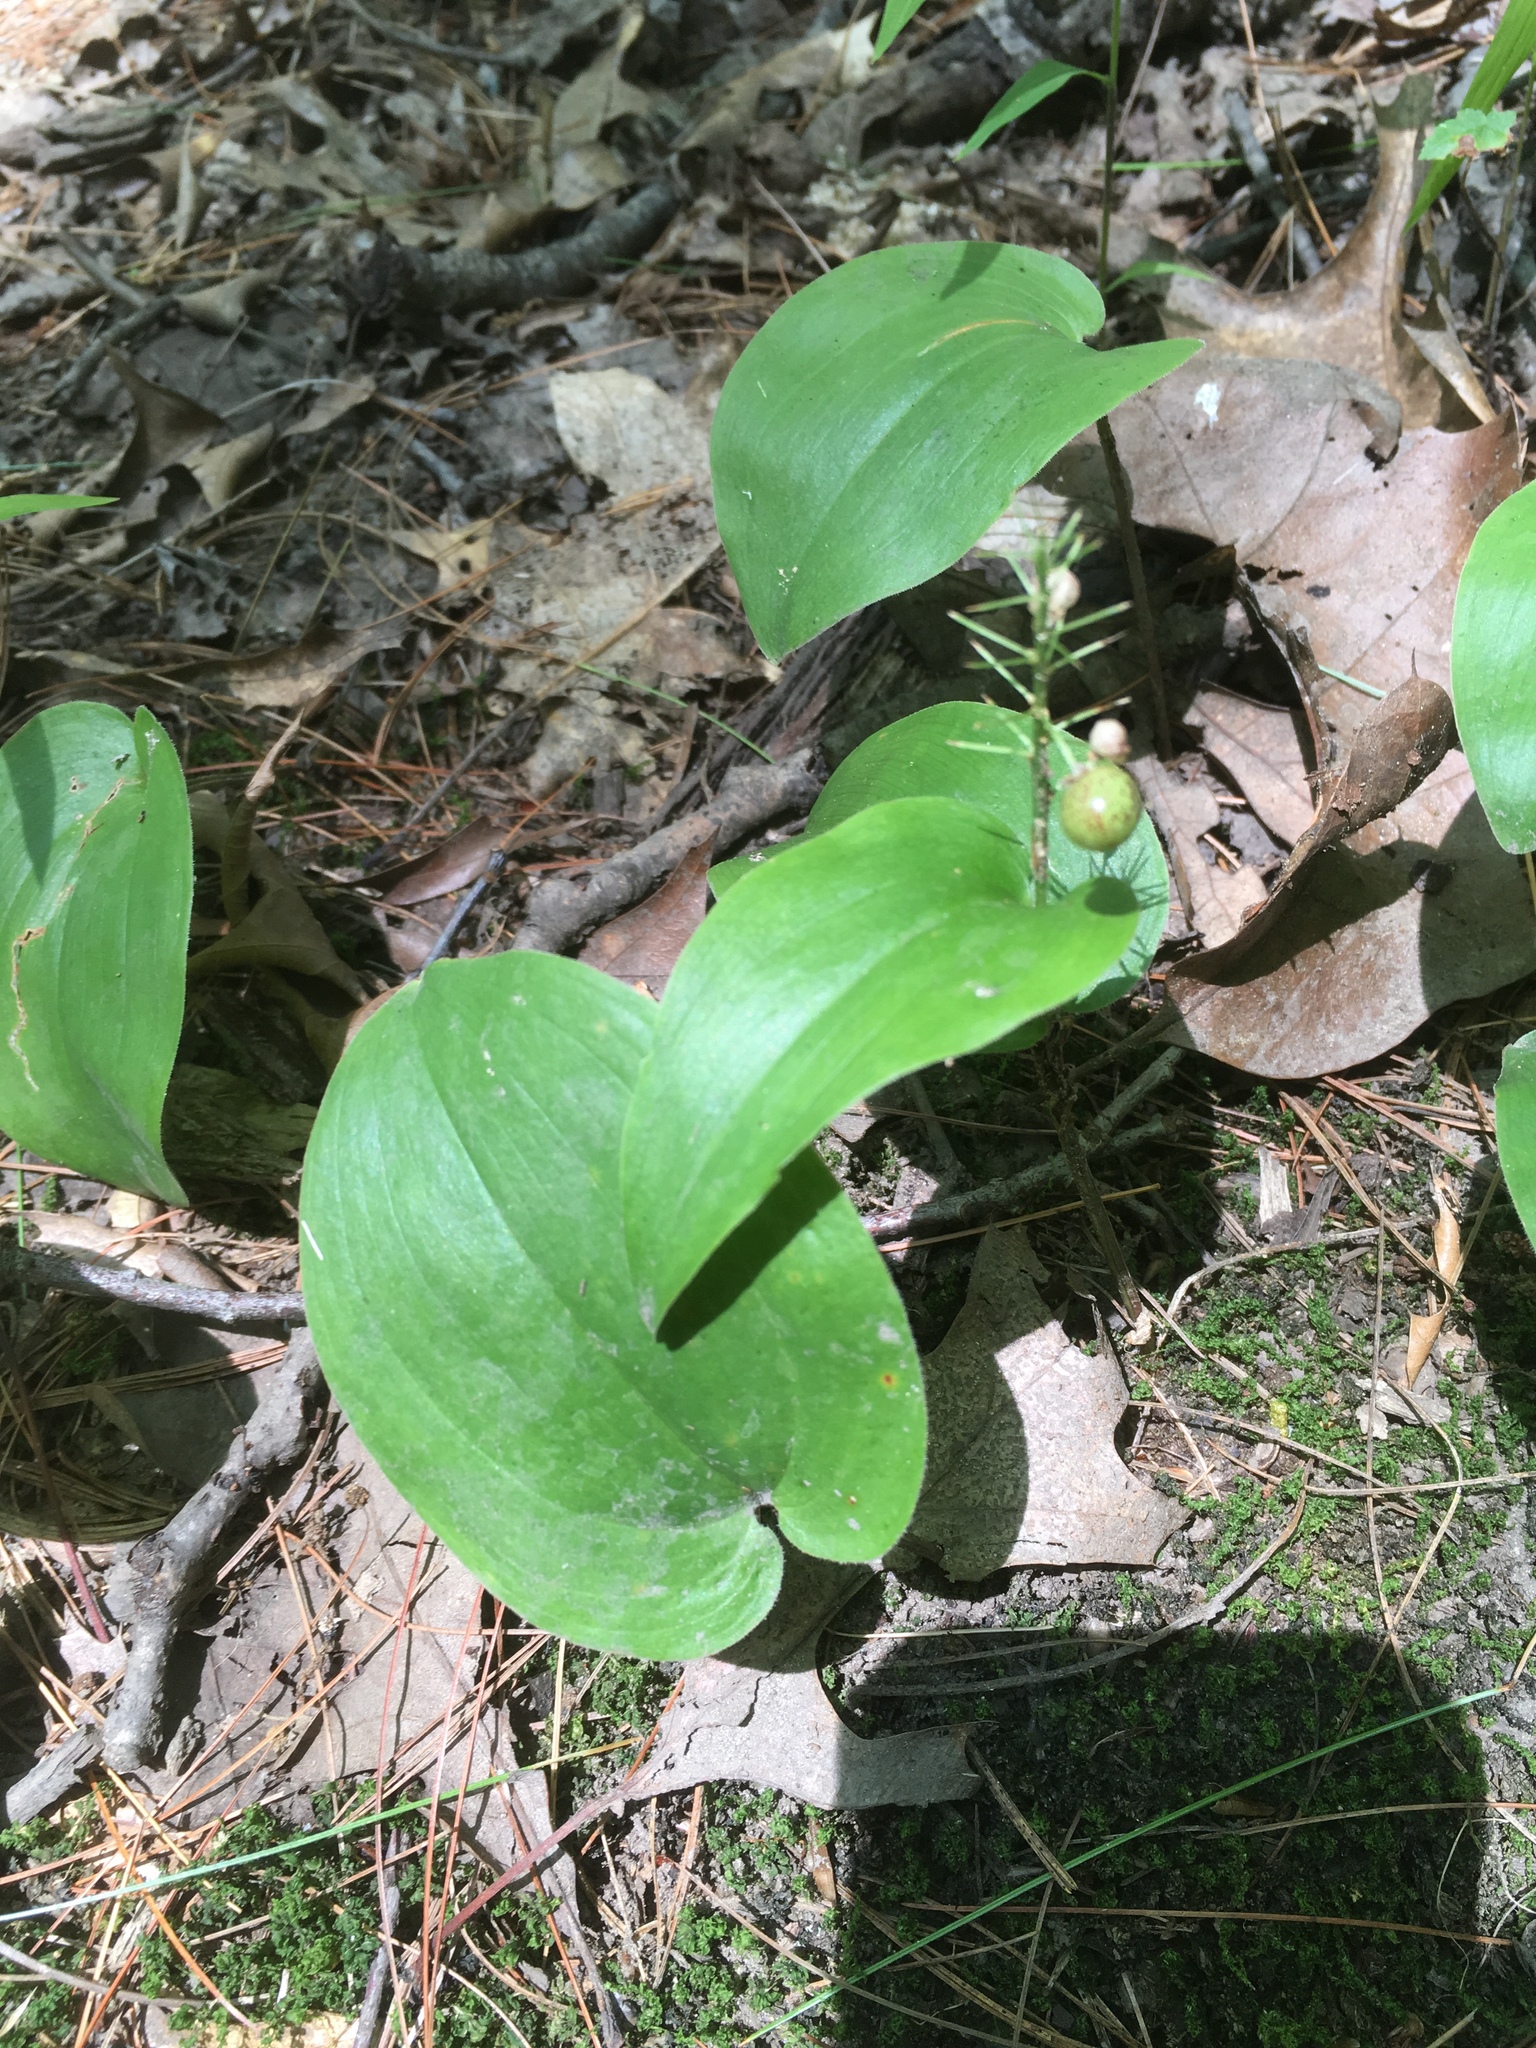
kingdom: Plantae
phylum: Tracheophyta
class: Liliopsida
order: Asparagales
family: Asparagaceae
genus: Maianthemum
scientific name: Maianthemum canadense
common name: False lily-of-the-valley
